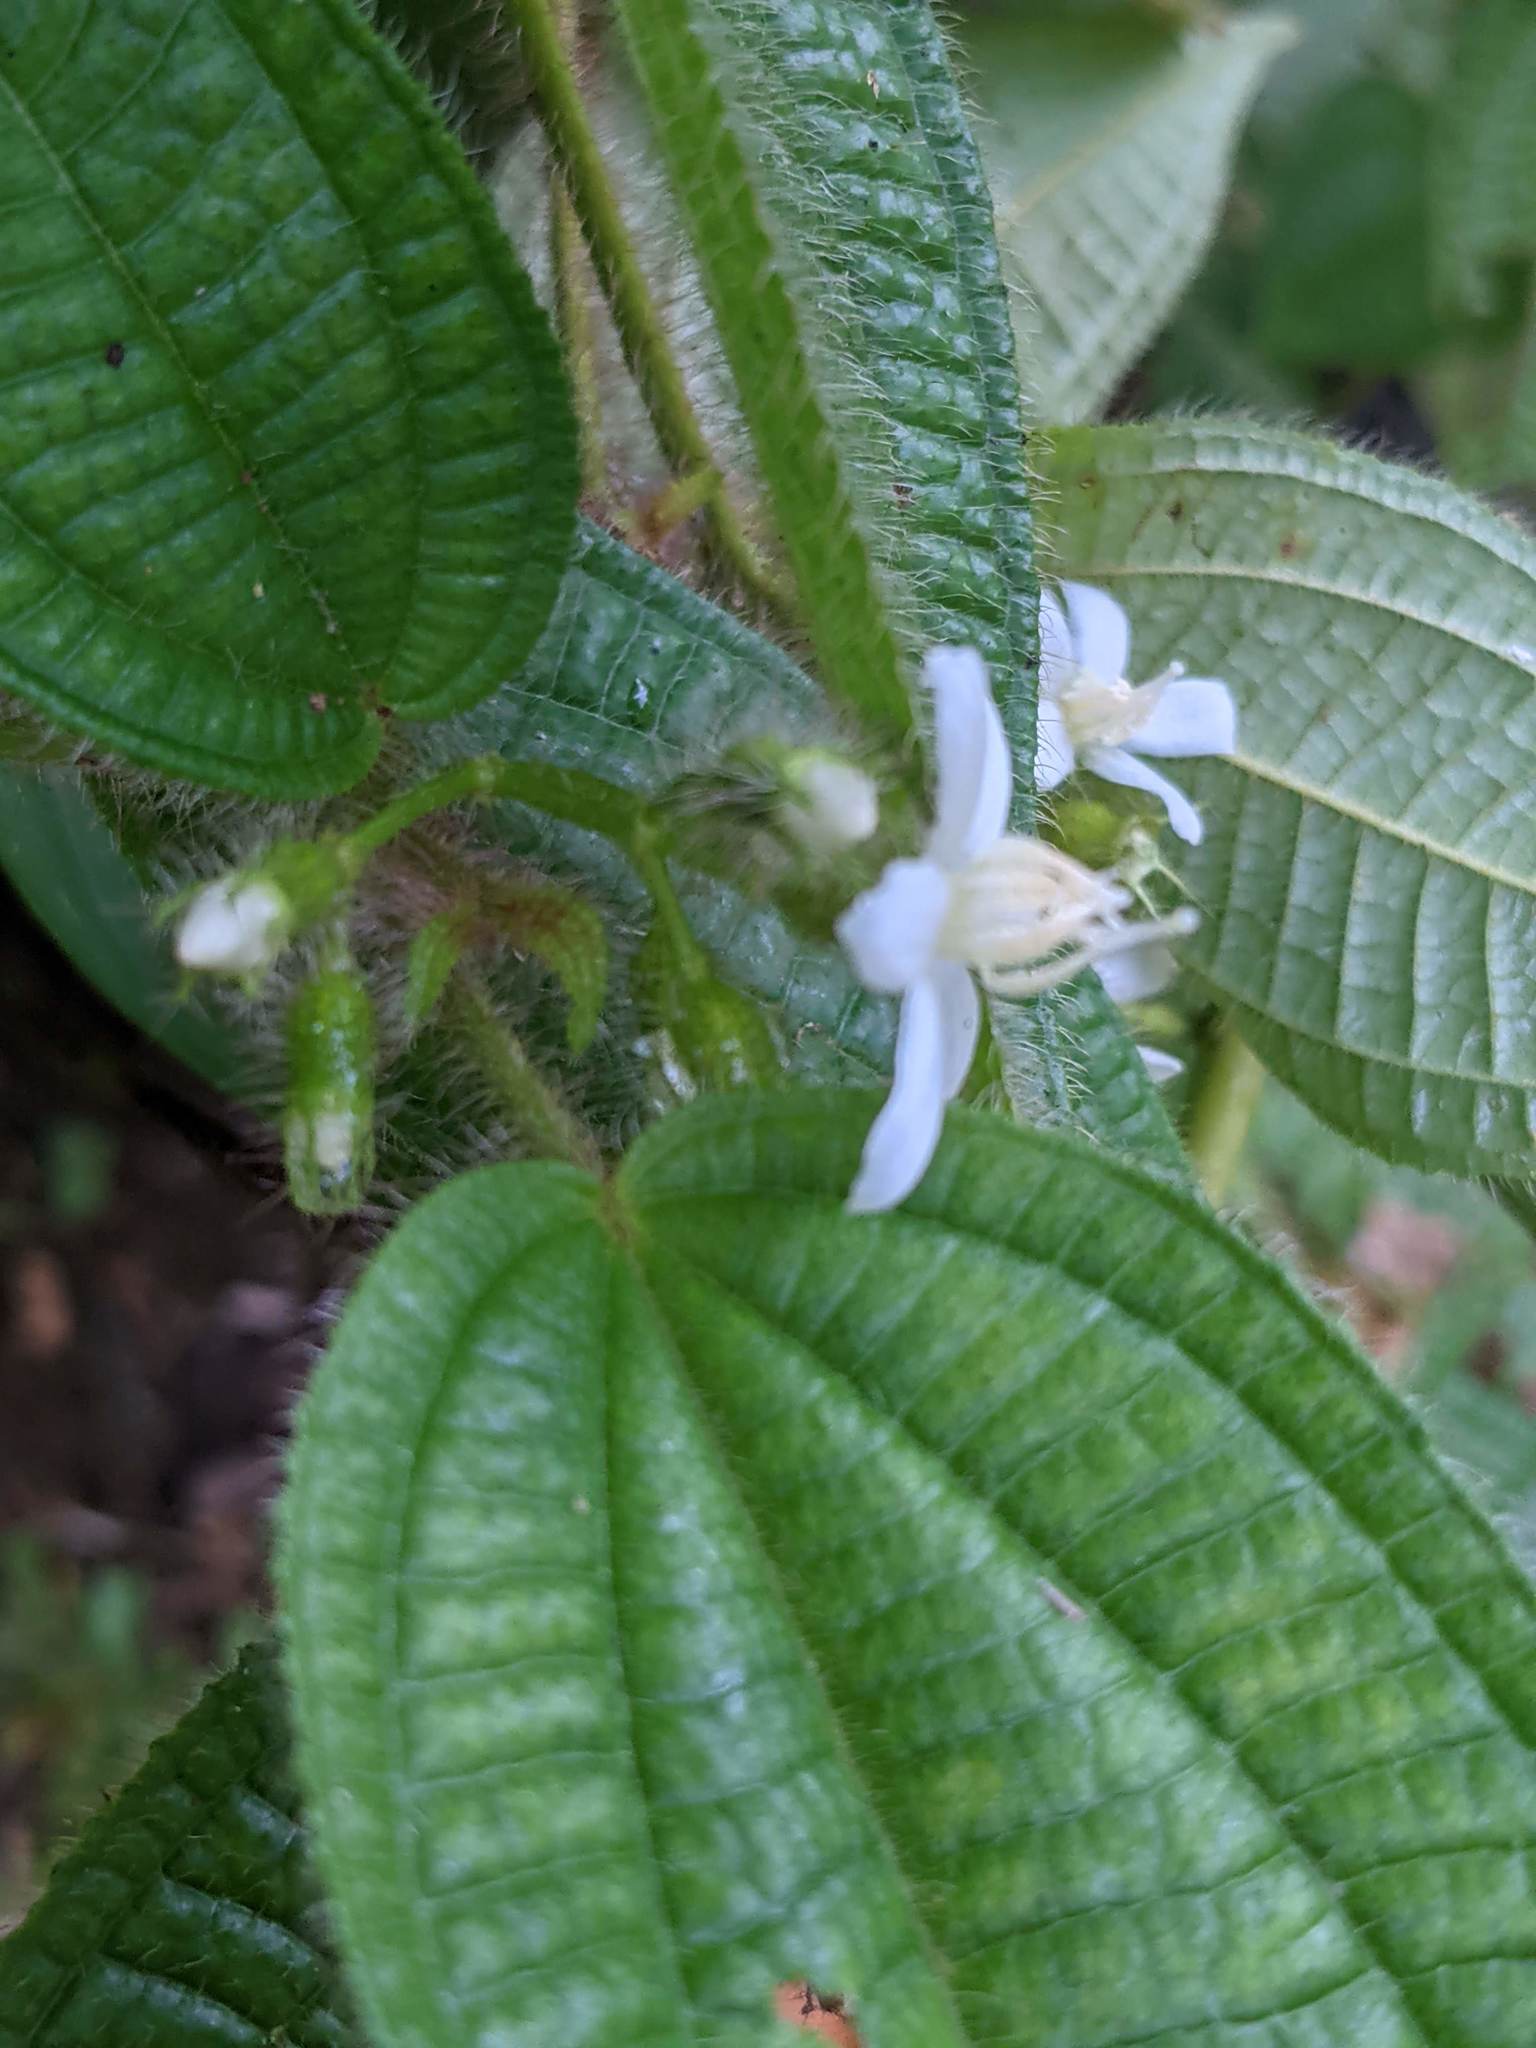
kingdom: Plantae
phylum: Tracheophyta
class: Magnoliopsida
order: Myrtales
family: Melastomataceae
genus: Miconia
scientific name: Miconia crenata
